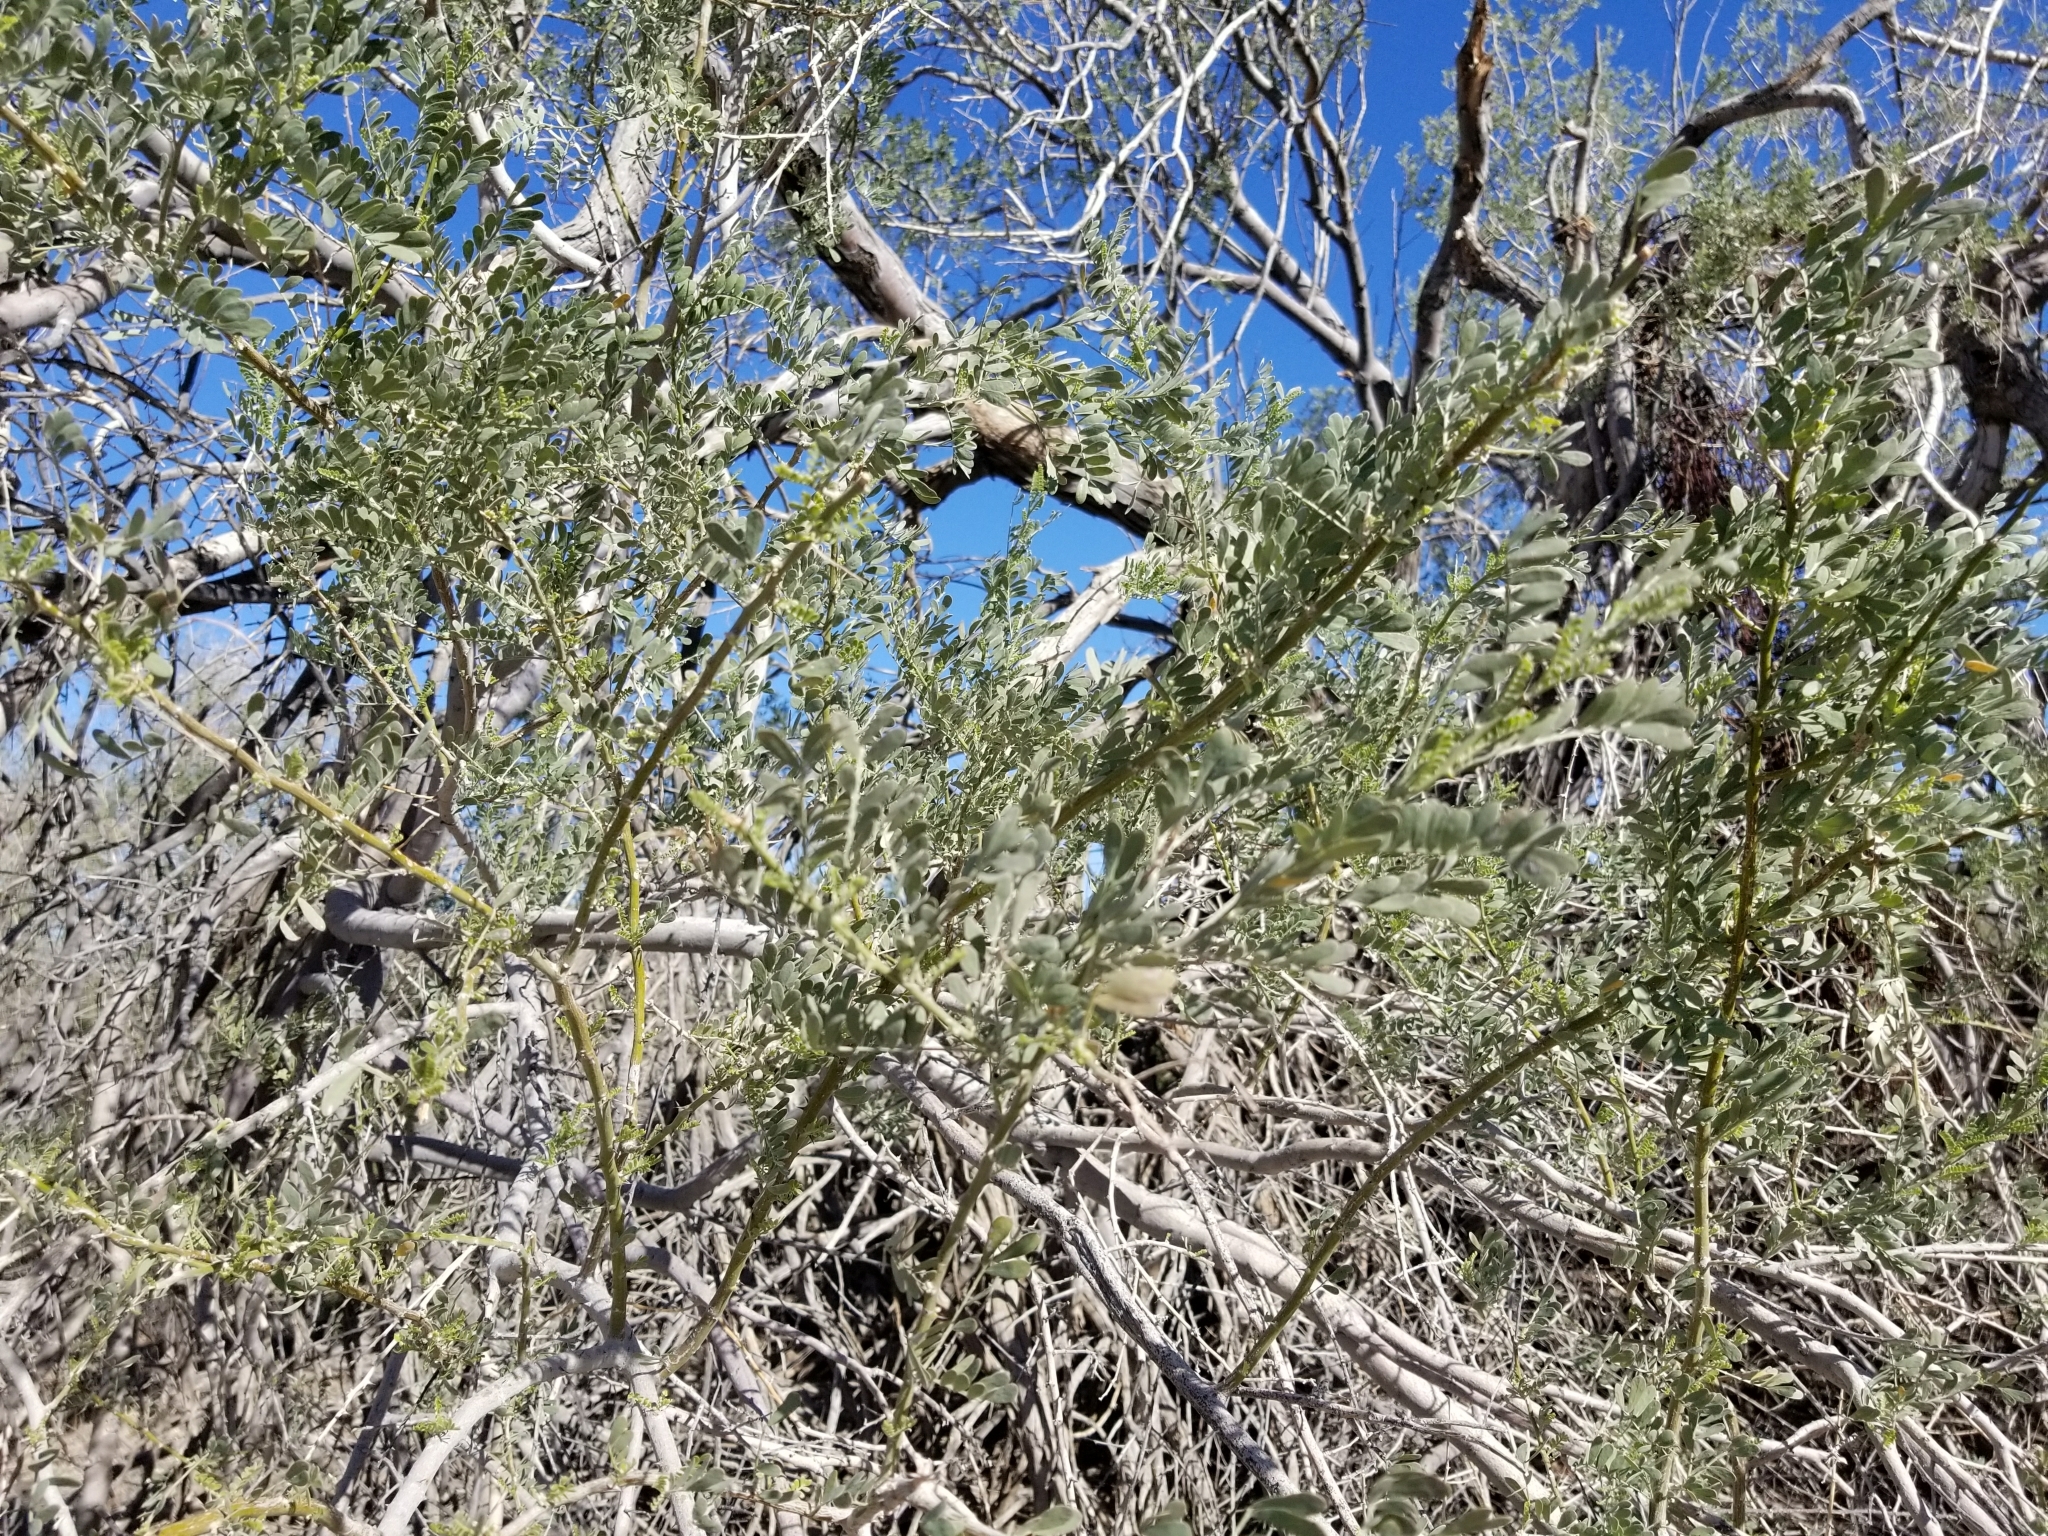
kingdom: Plantae
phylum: Tracheophyta
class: Magnoliopsida
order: Fabales
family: Fabaceae
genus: Olneya
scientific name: Olneya tesota
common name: Desert ironwood
